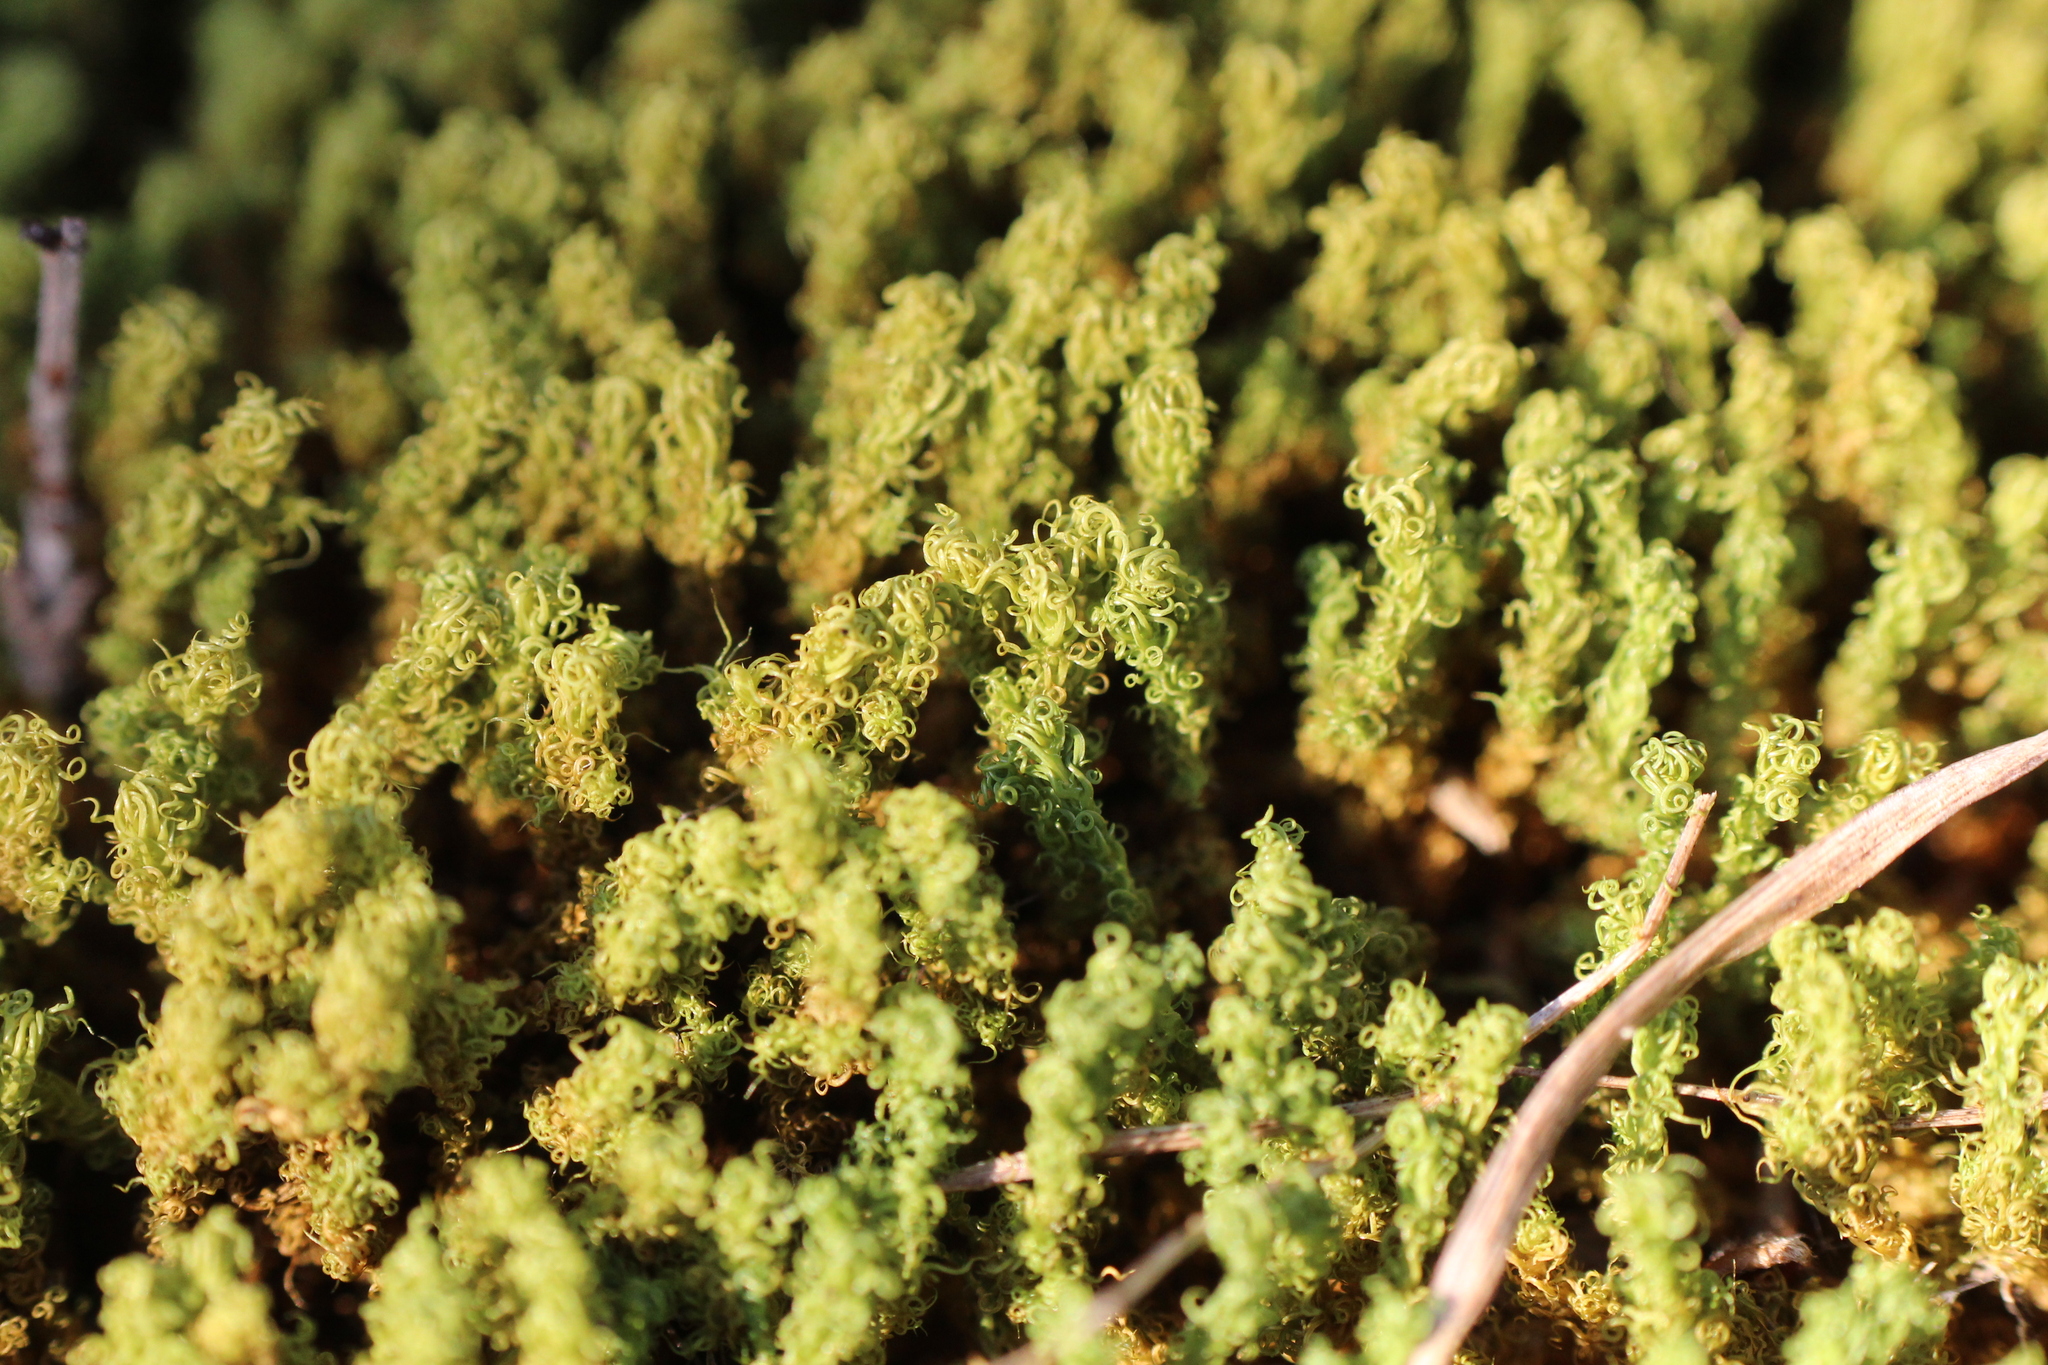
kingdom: Plantae
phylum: Bryophyta
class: Bryopsida
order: Pottiales
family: Pottiaceae
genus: Pleurochaete
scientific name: Pleurochaete squarrosa
